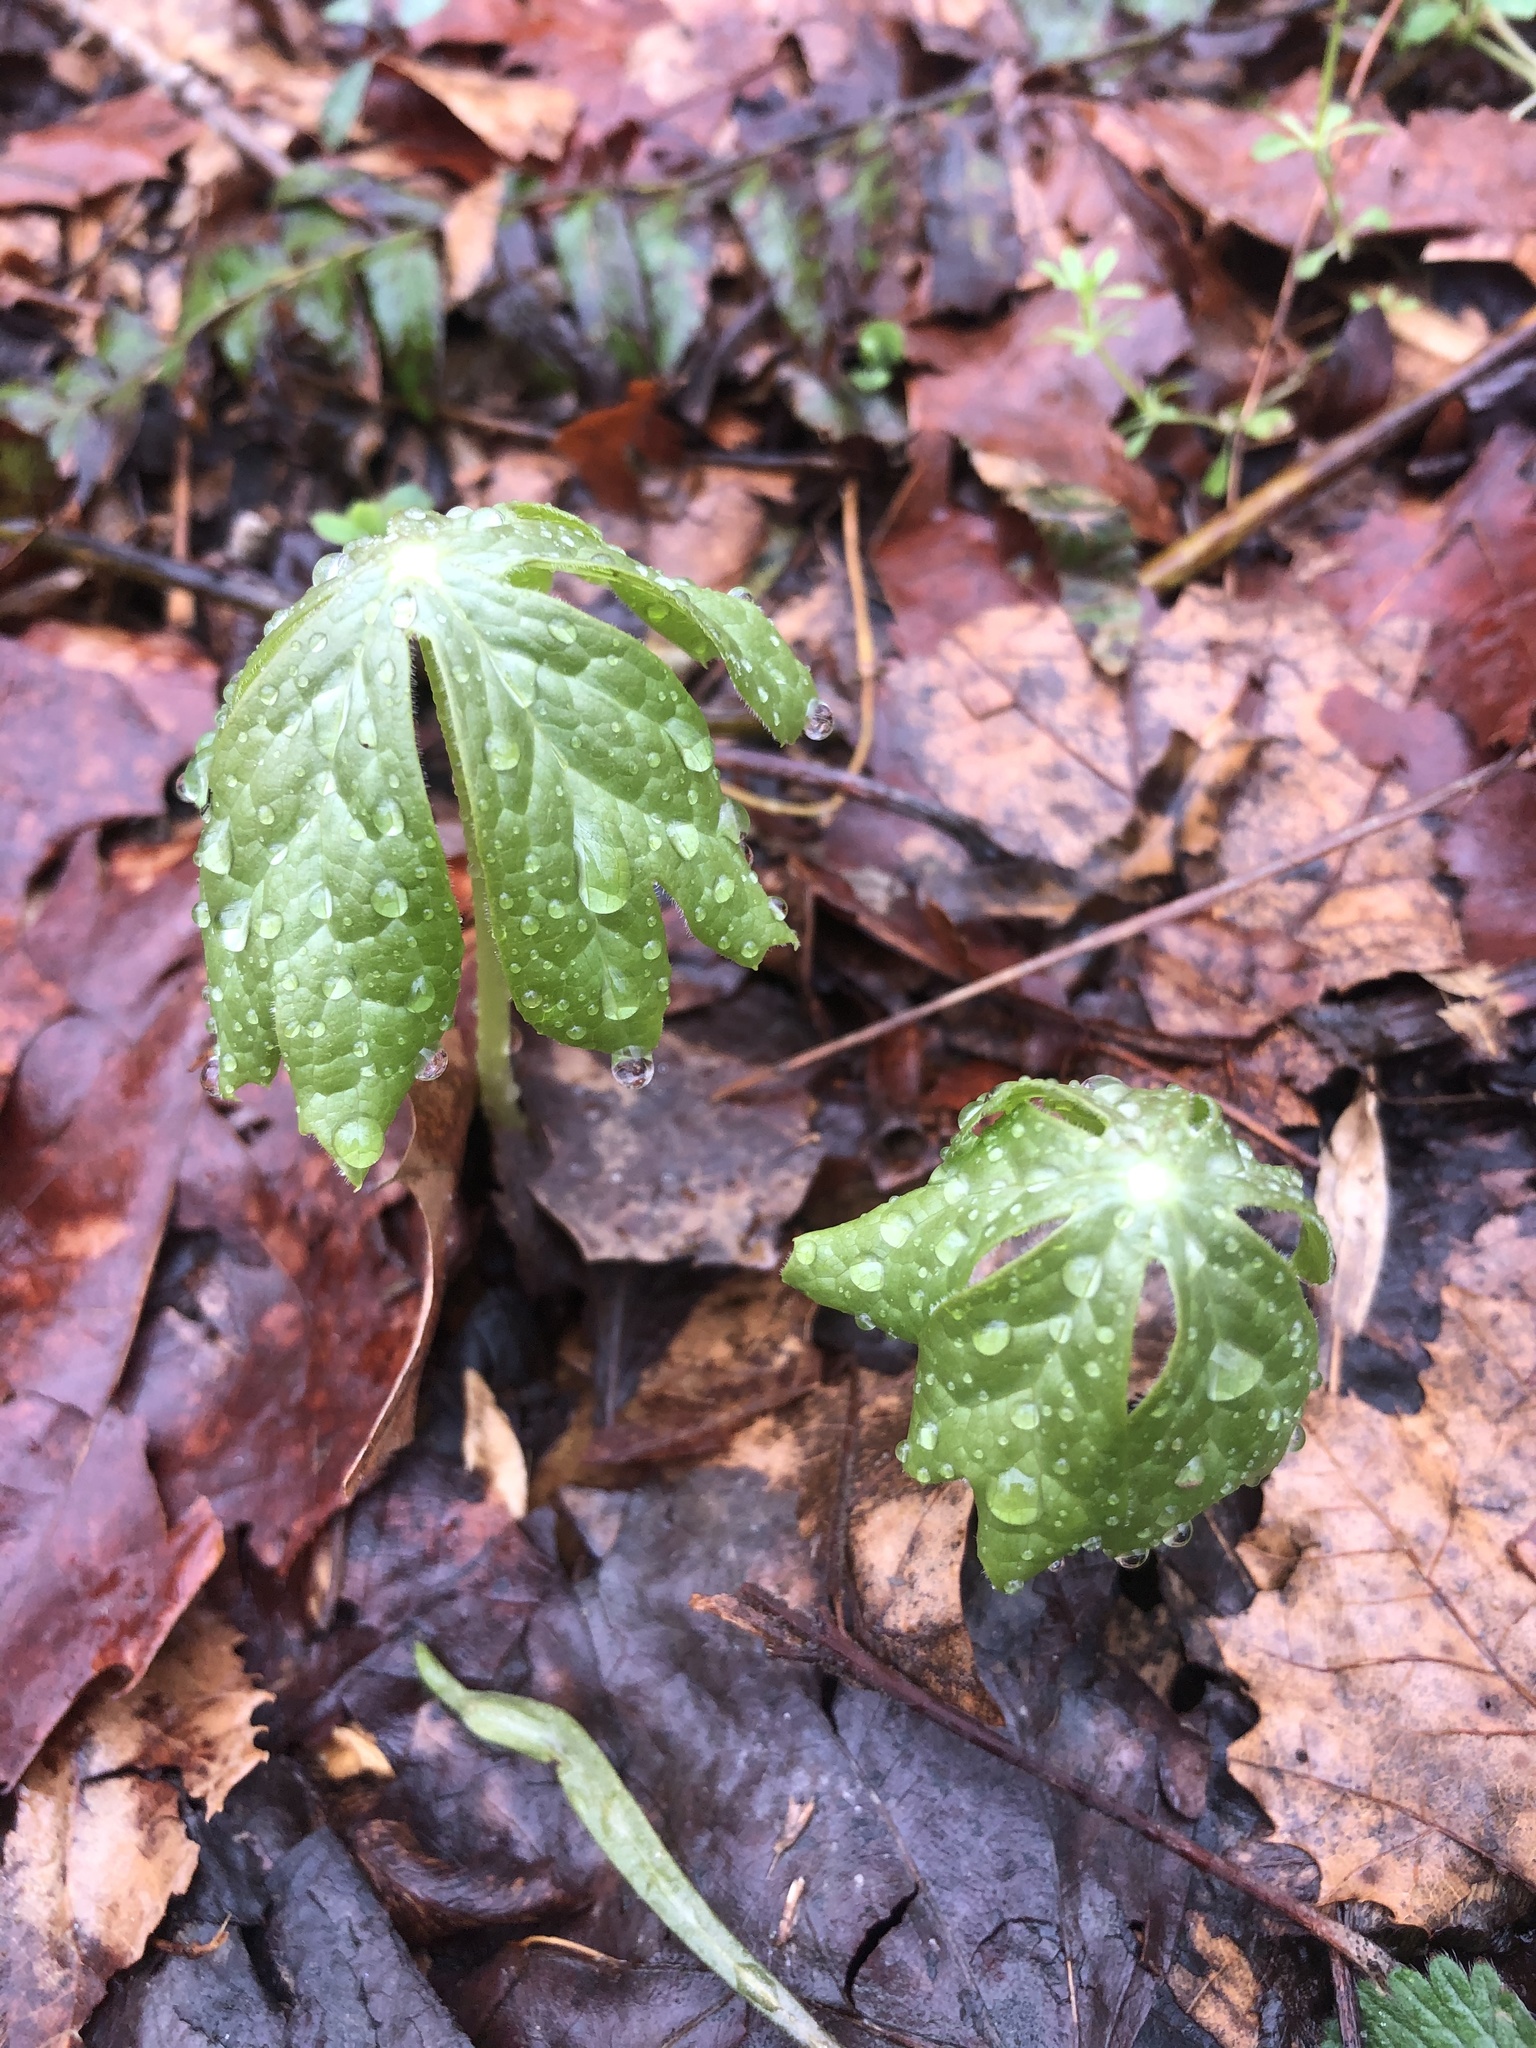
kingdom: Plantae
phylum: Tracheophyta
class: Magnoliopsida
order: Ranunculales
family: Berberidaceae
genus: Podophyllum
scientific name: Podophyllum peltatum
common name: Wild mandrake
